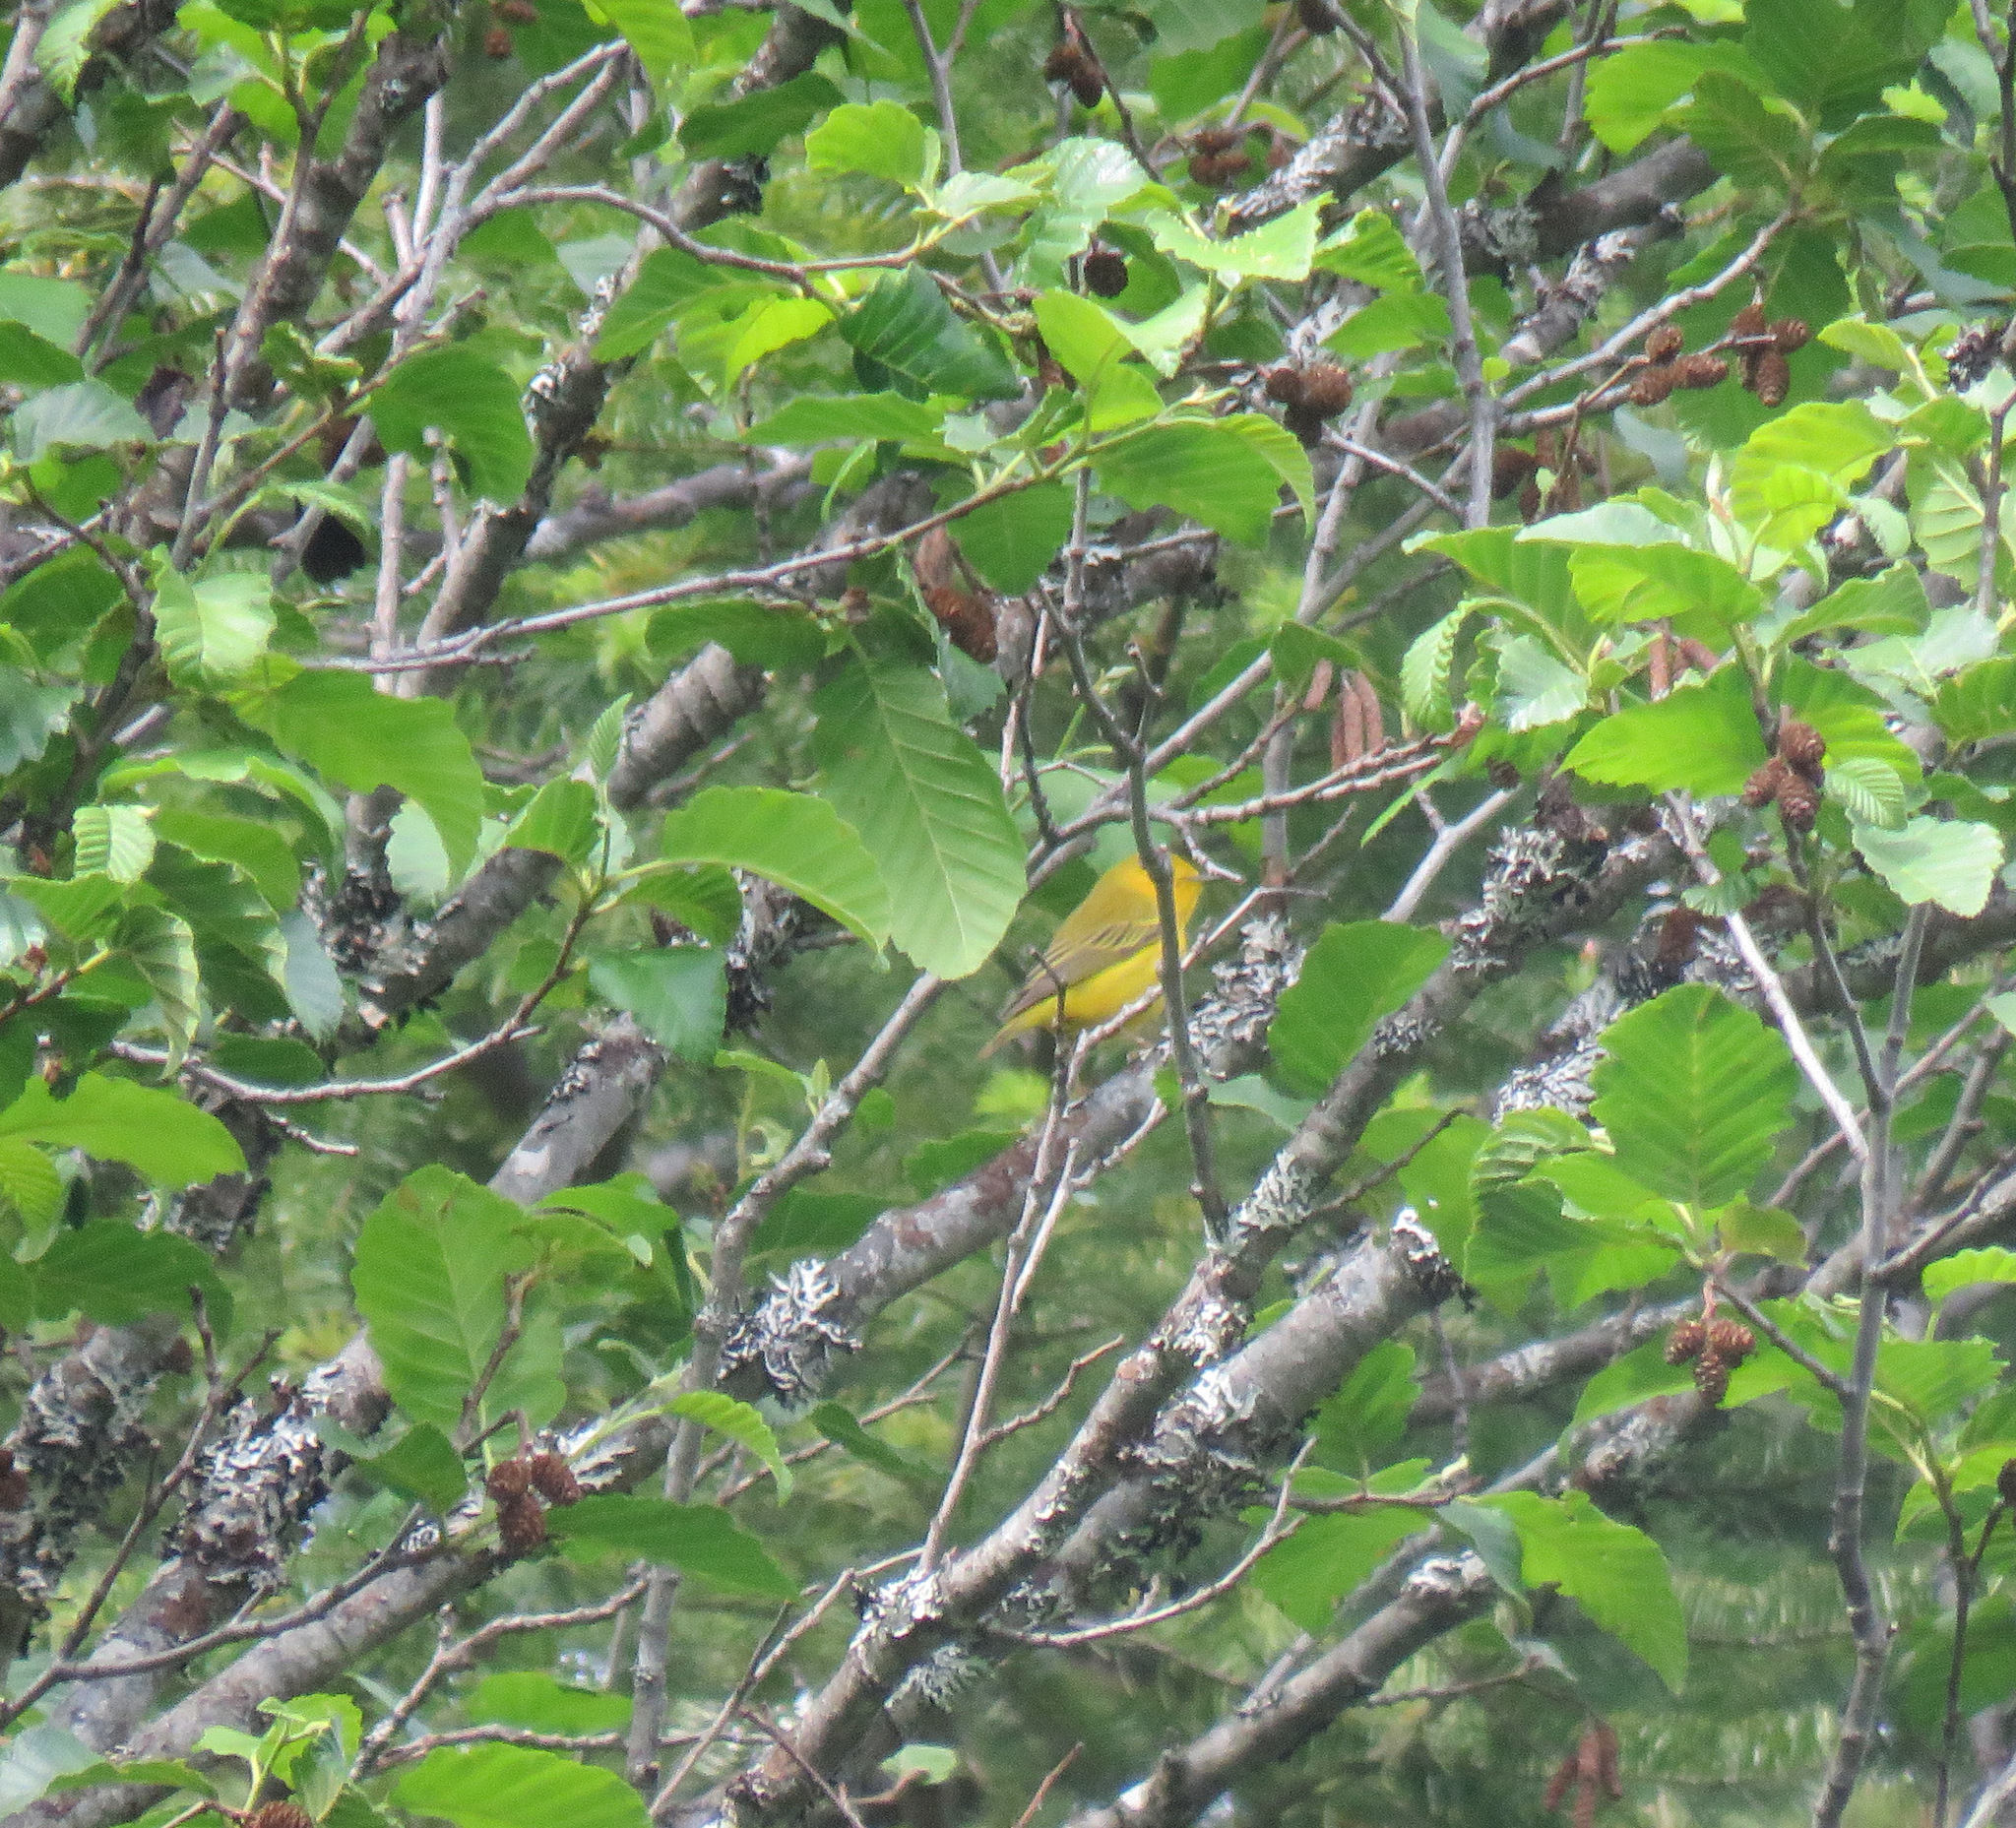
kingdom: Animalia
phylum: Chordata
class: Aves
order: Passeriformes
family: Parulidae
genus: Setophaga
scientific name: Setophaga petechia
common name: Yellow warbler
